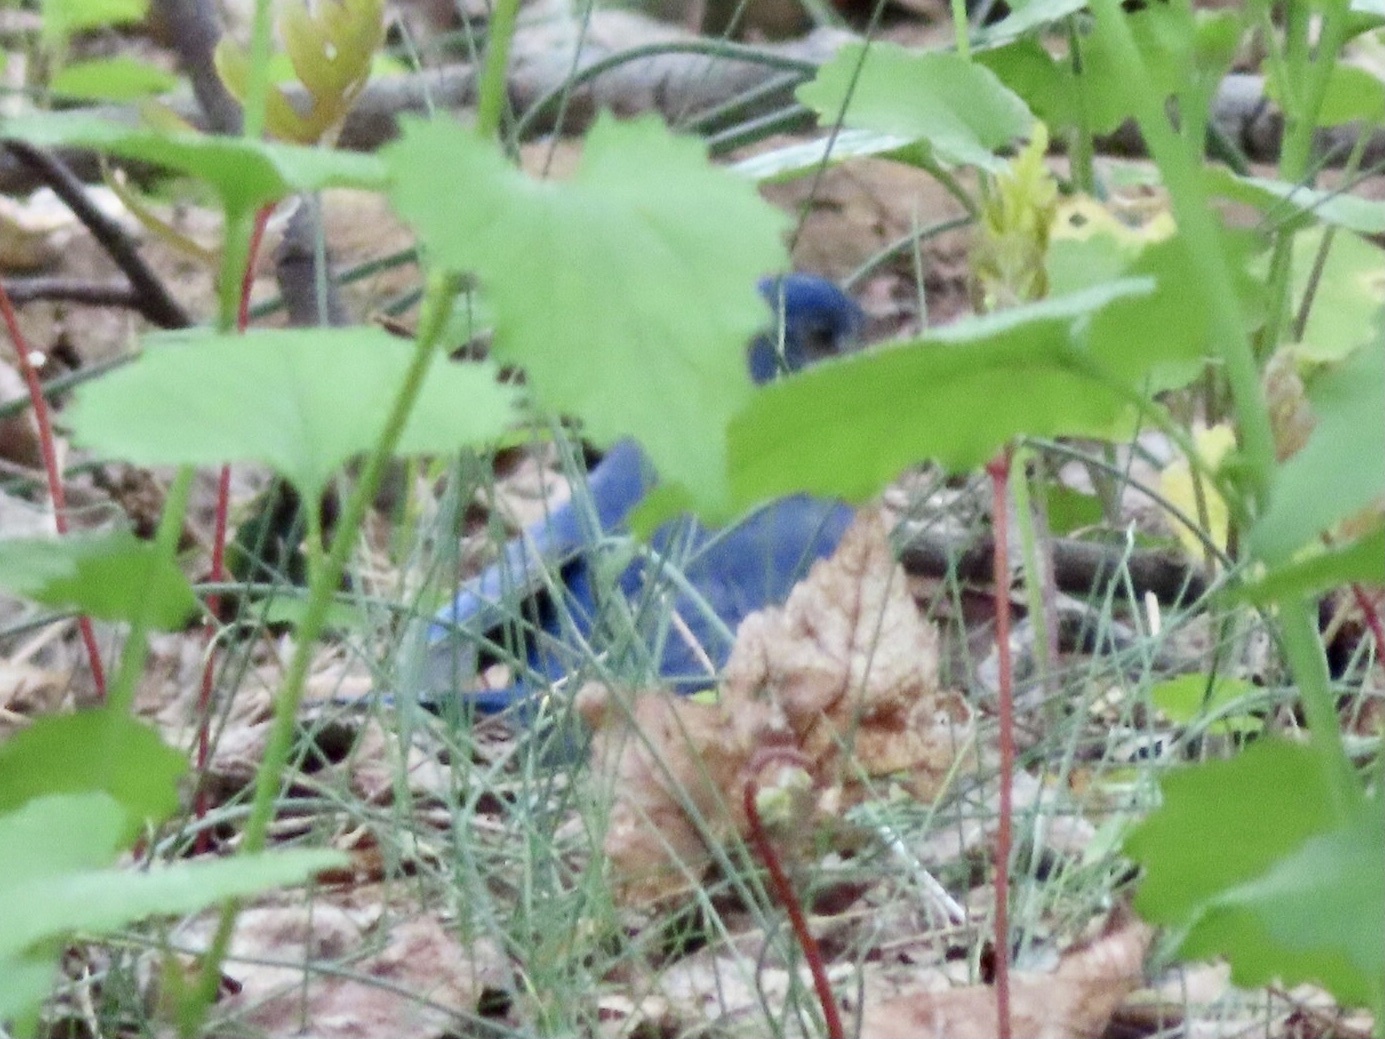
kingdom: Animalia
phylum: Chordata
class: Aves
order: Passeriformes
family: Turdidae
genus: Sialia
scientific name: Sialia sialis
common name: Eastern bluebird
